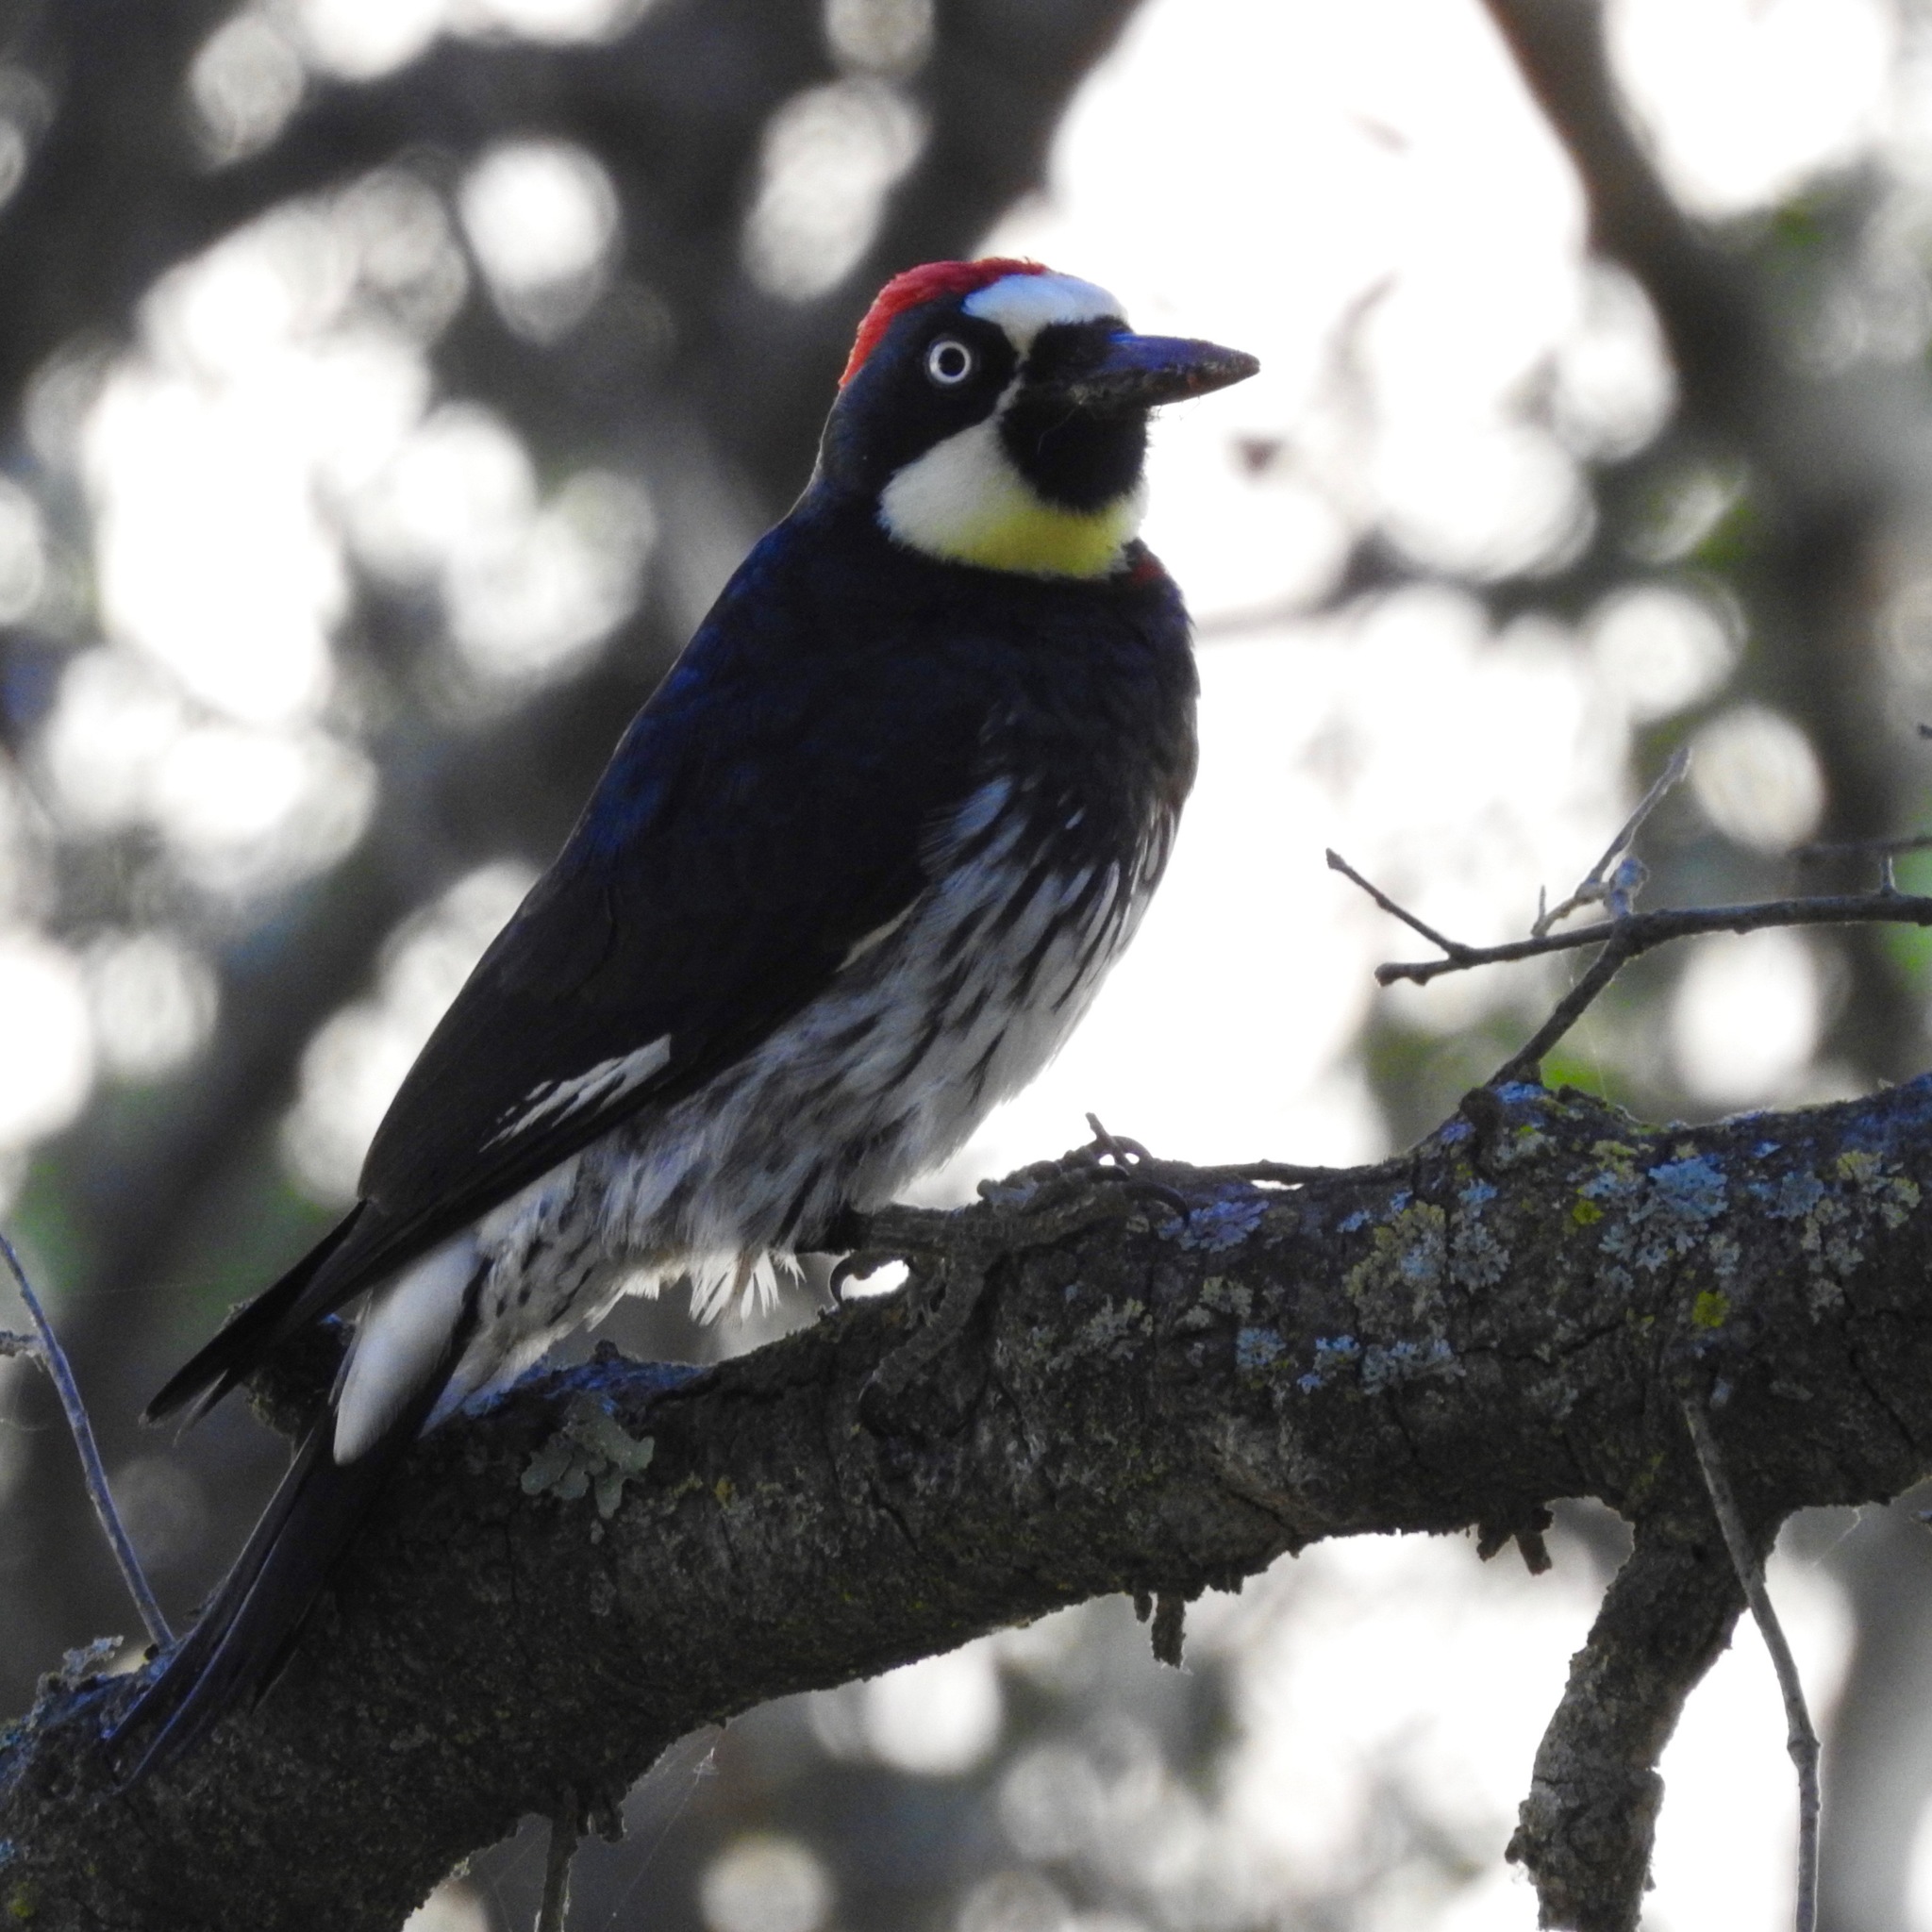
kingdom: Animalia
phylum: Chordata
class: Aves
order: Piciformes
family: Picidae
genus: Melanerpes
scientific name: Melanerpes formicivorus
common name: Acorn woodpecker
